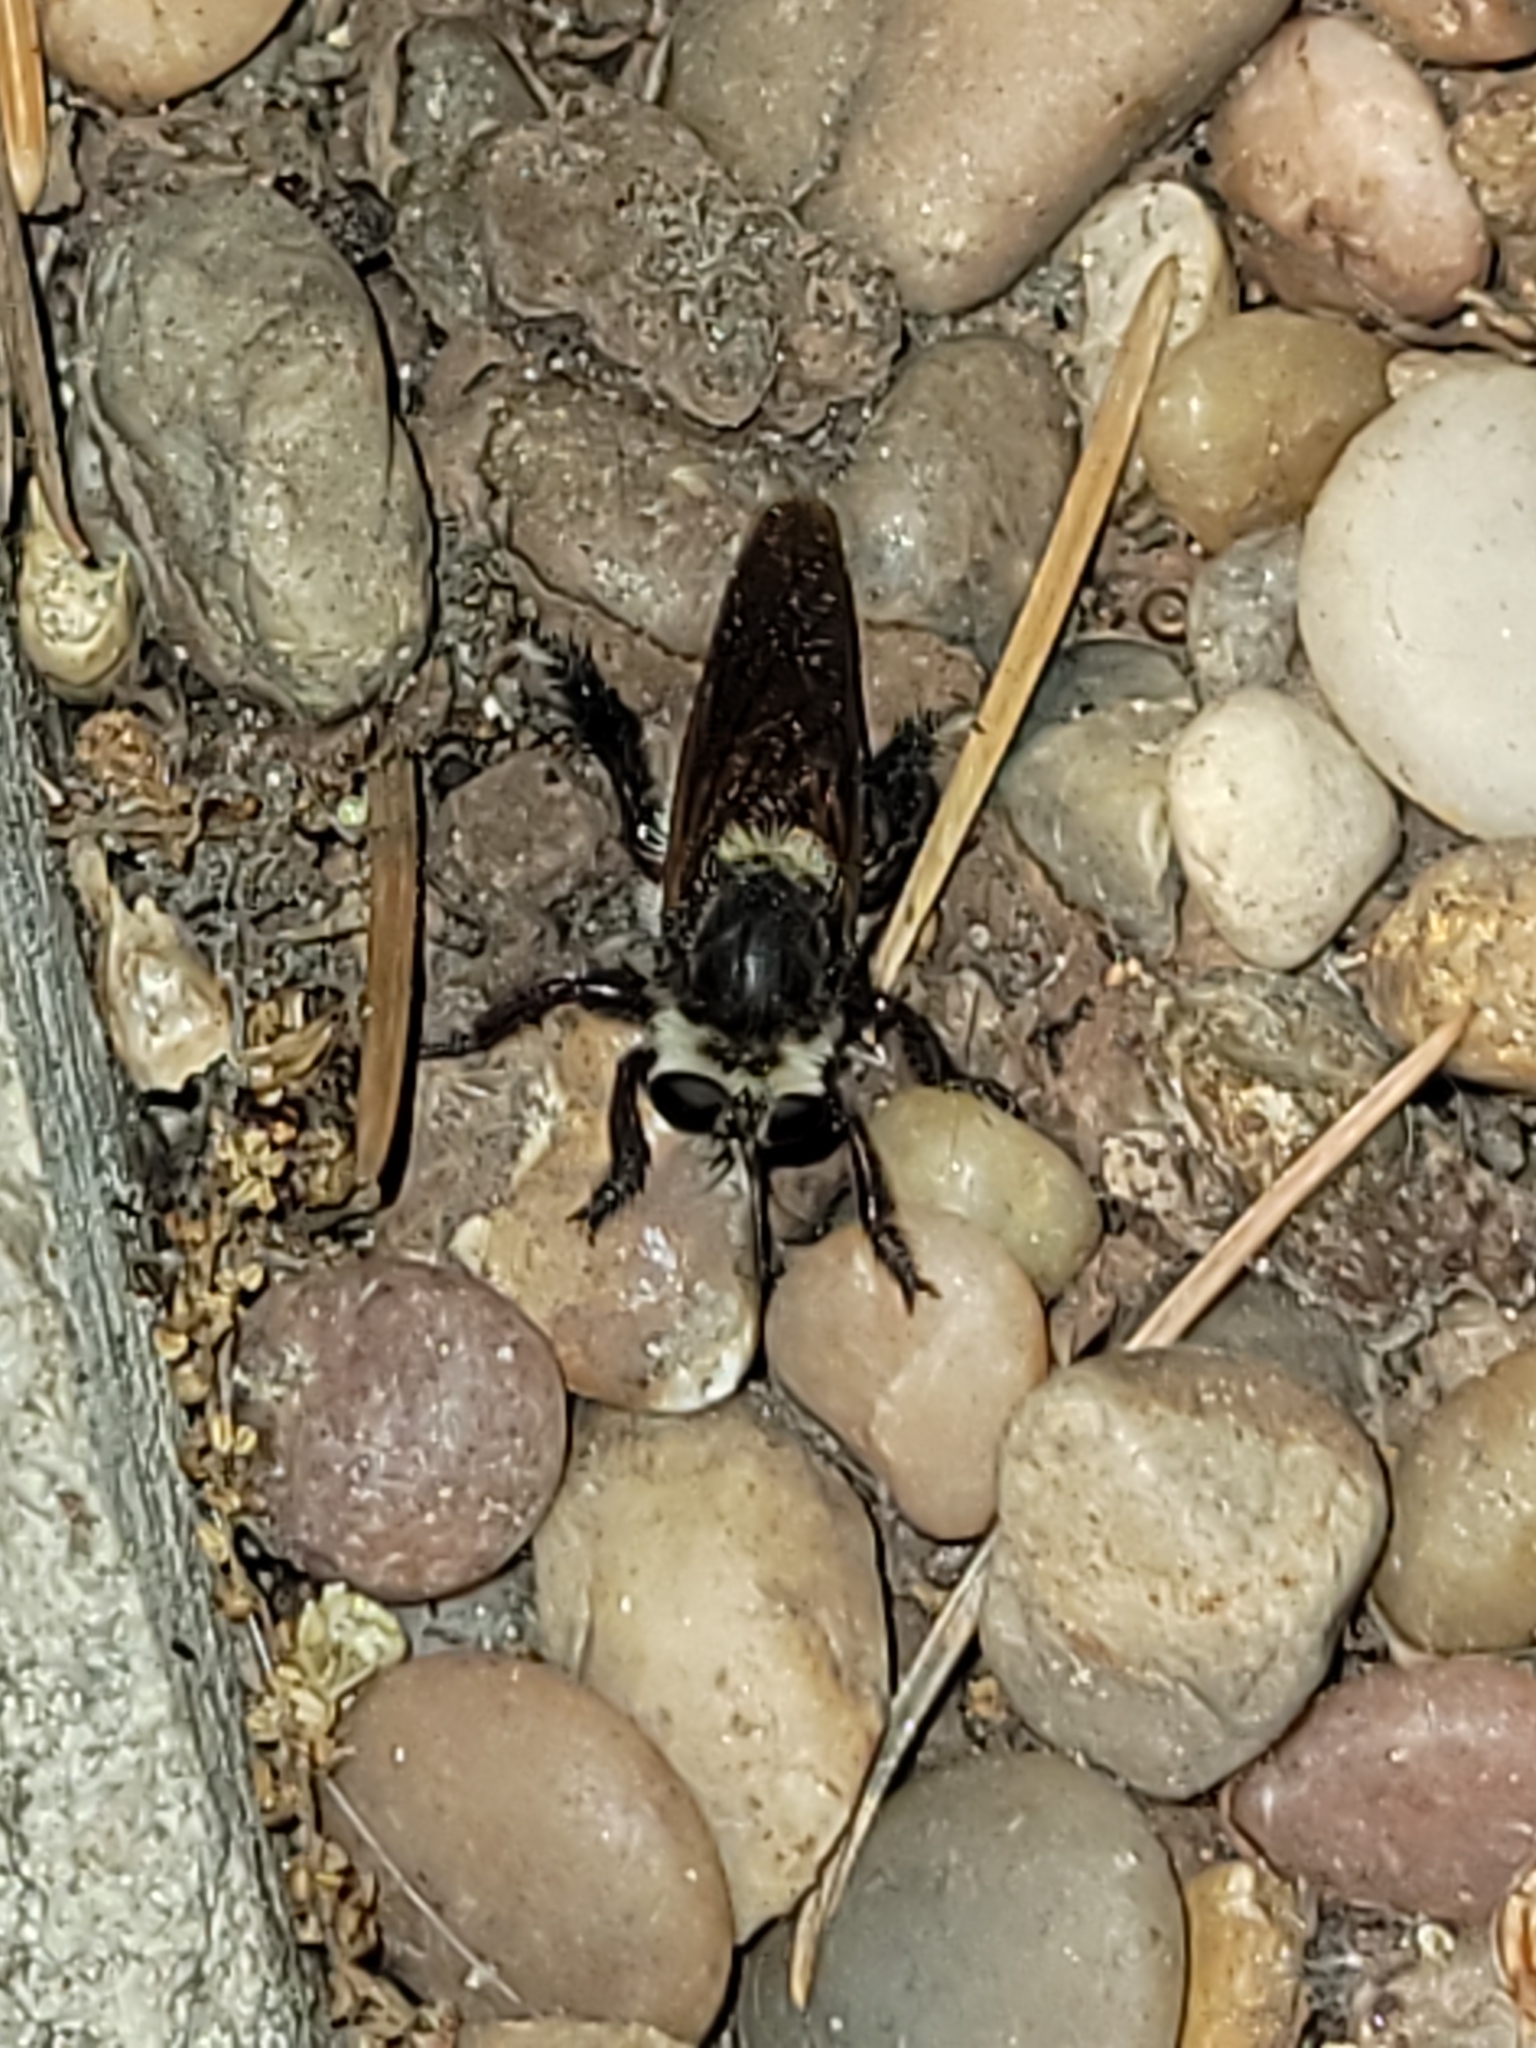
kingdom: Animalia
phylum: Arthropoda
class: Insecta
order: Diptera
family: Asilidae
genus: Mallophora
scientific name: Mallophora fautrix
